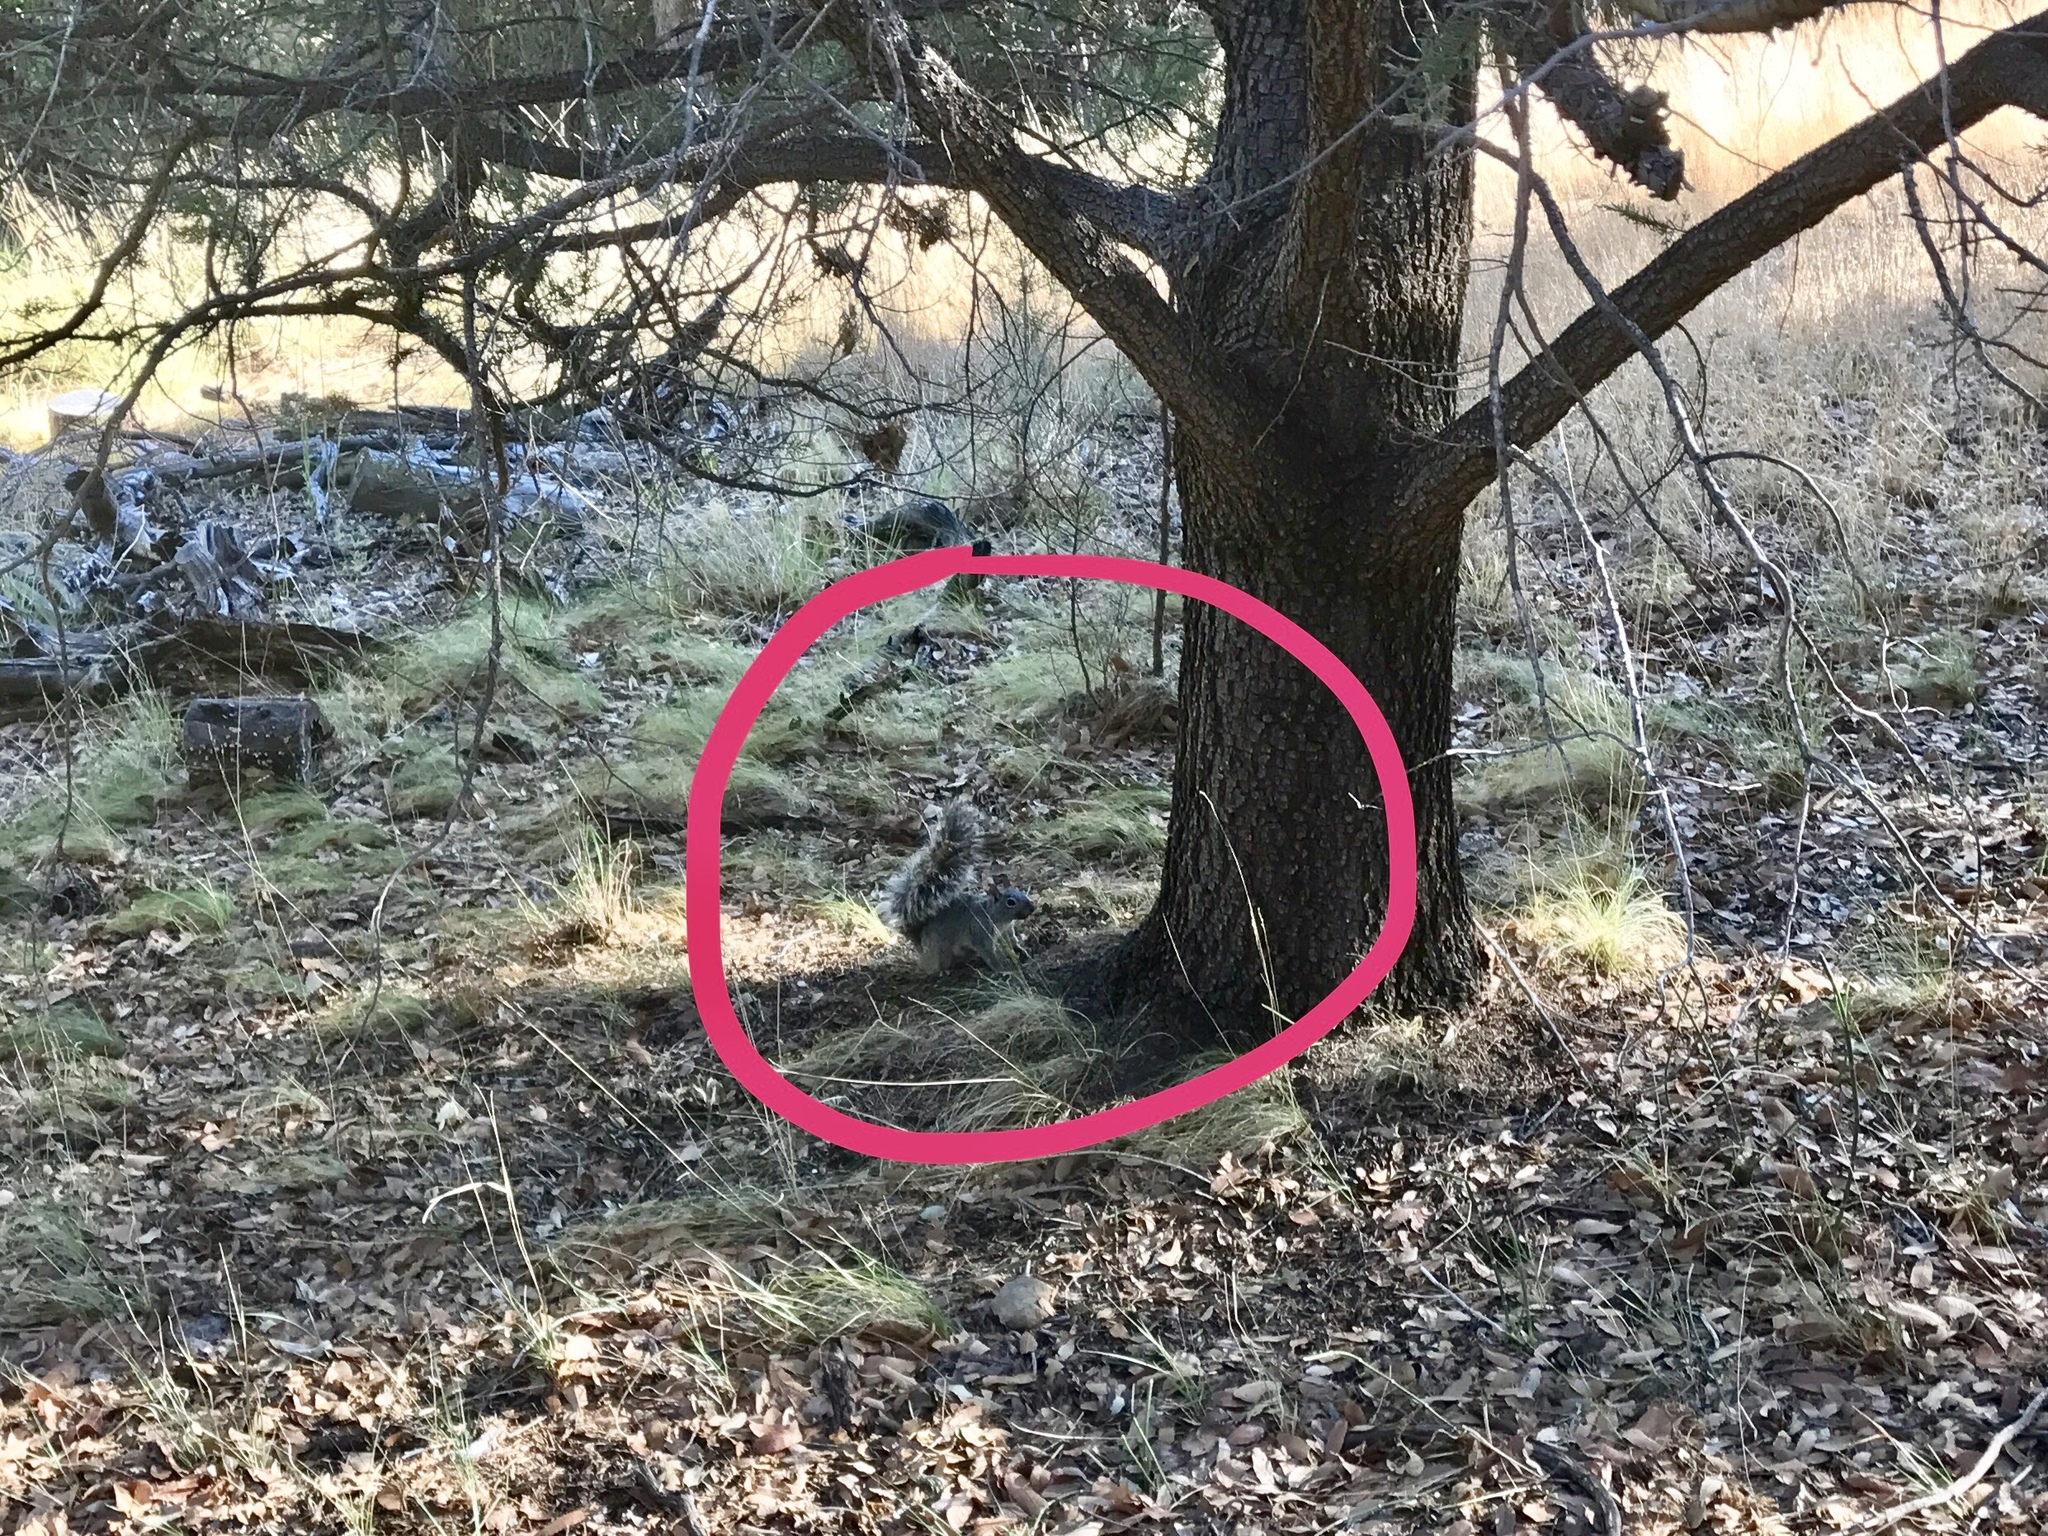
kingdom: Animalia
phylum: Chordata
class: Mammalia
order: Rodentia
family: Sciuridae
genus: Sciurus
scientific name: Sciurus arizonensis
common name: Arizona gray squirrel
